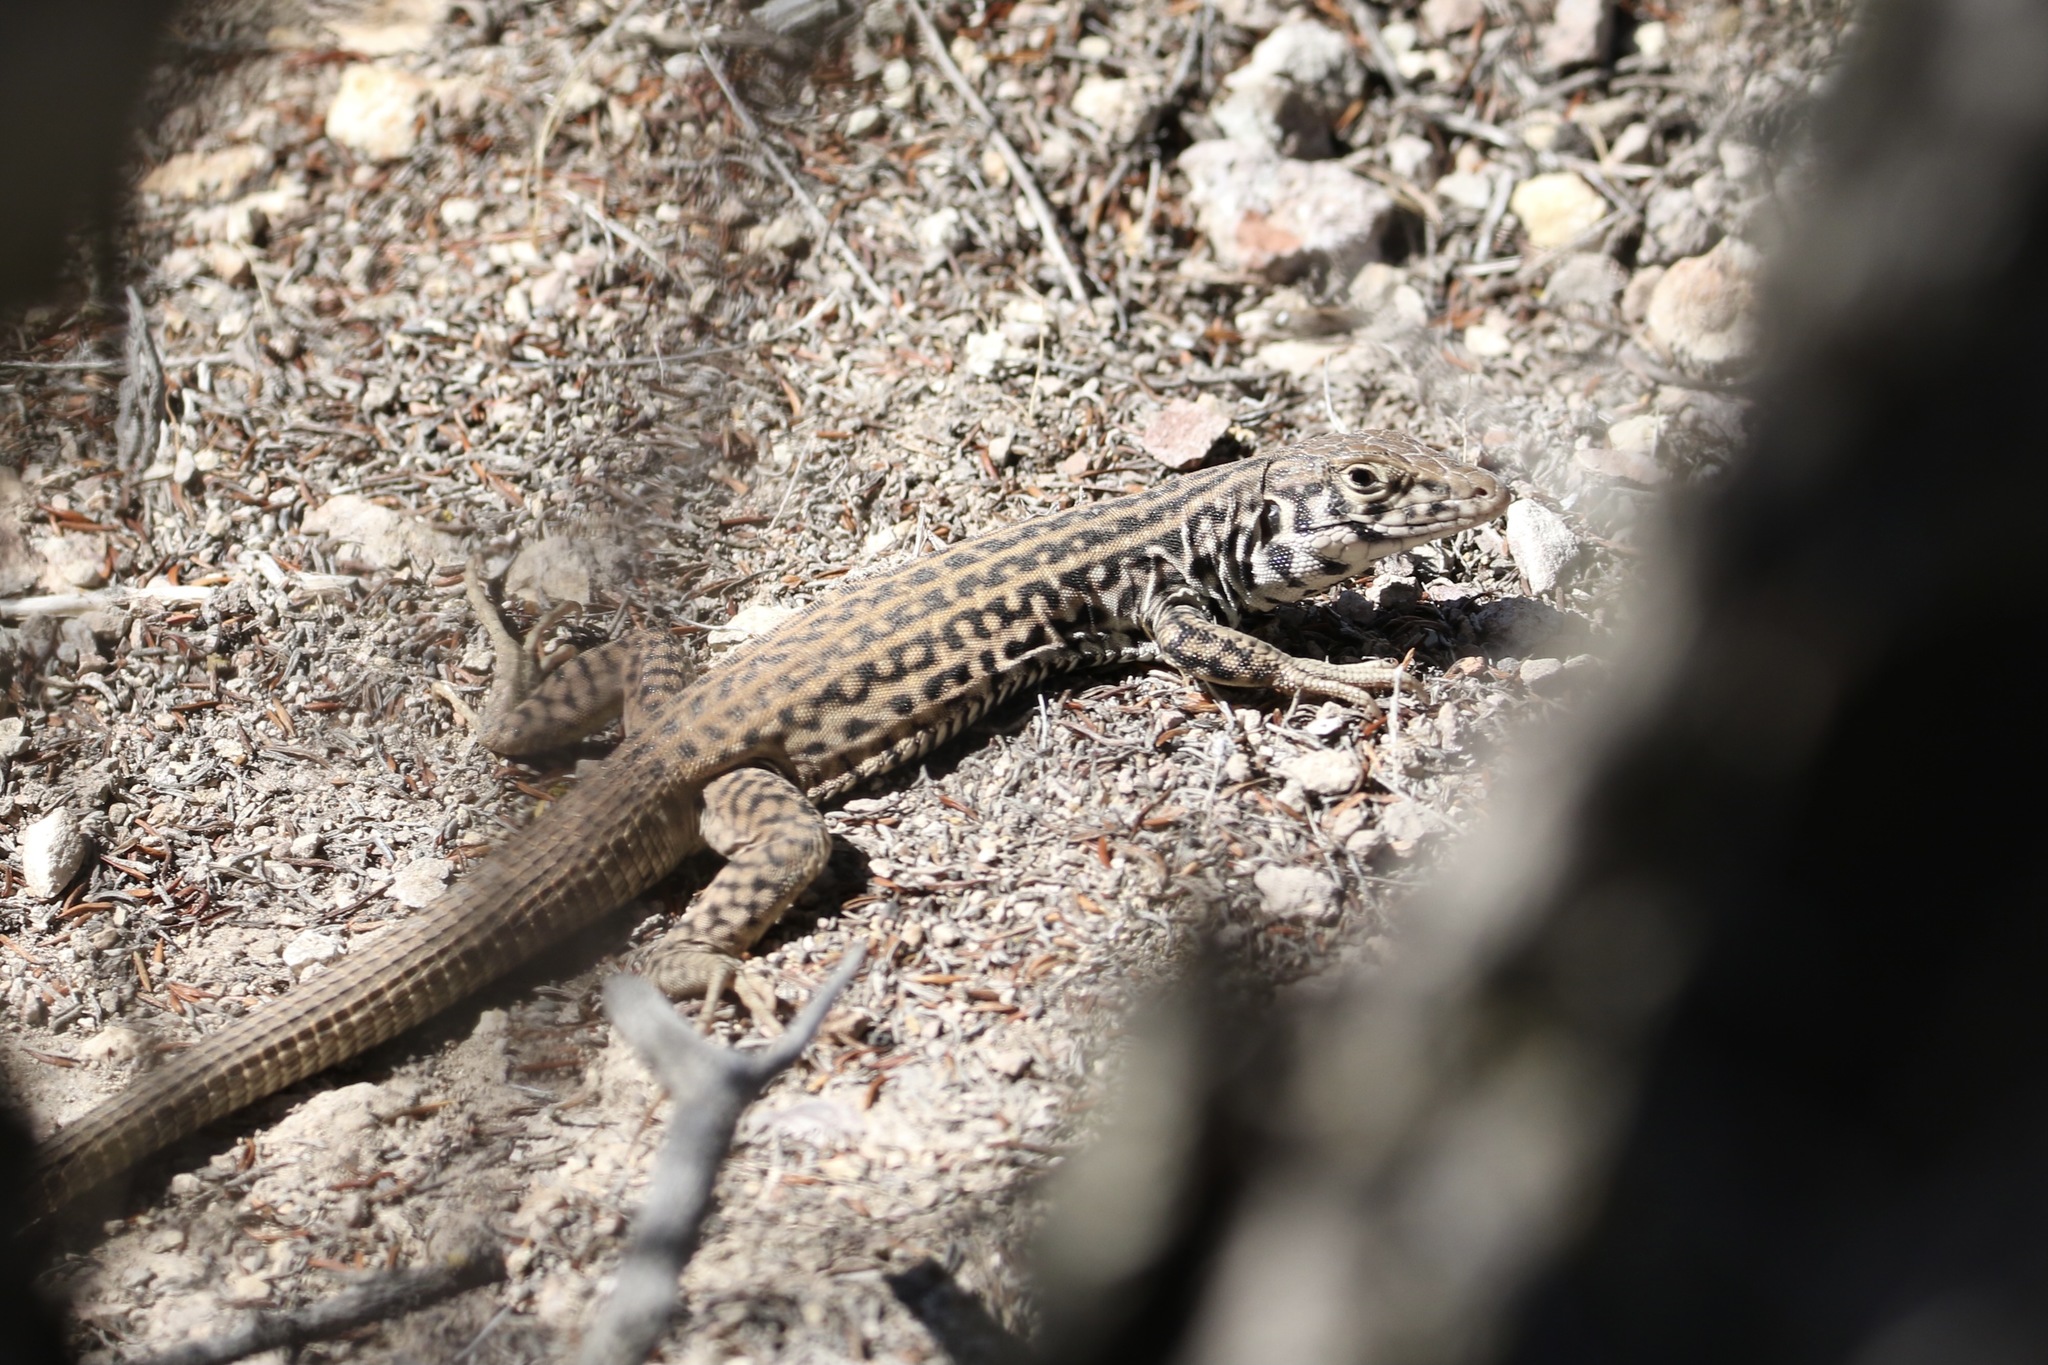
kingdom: Animalia
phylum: Chordata
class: Squamata
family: Teiidae
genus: Aspidoscelis
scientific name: Aspidoscelis tigris
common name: Tiger whiptail
